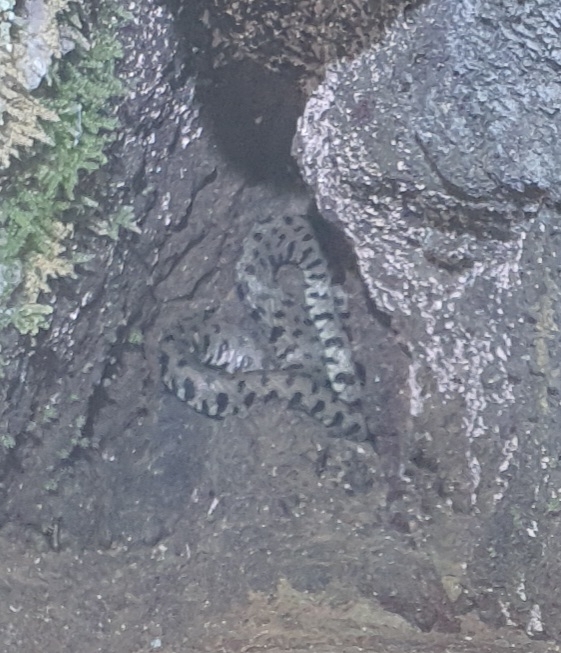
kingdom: Animalia
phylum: Chordata
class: Squamata
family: Colubridae
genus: Natrix
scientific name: Natrix helvetica
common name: Banded grass snake
